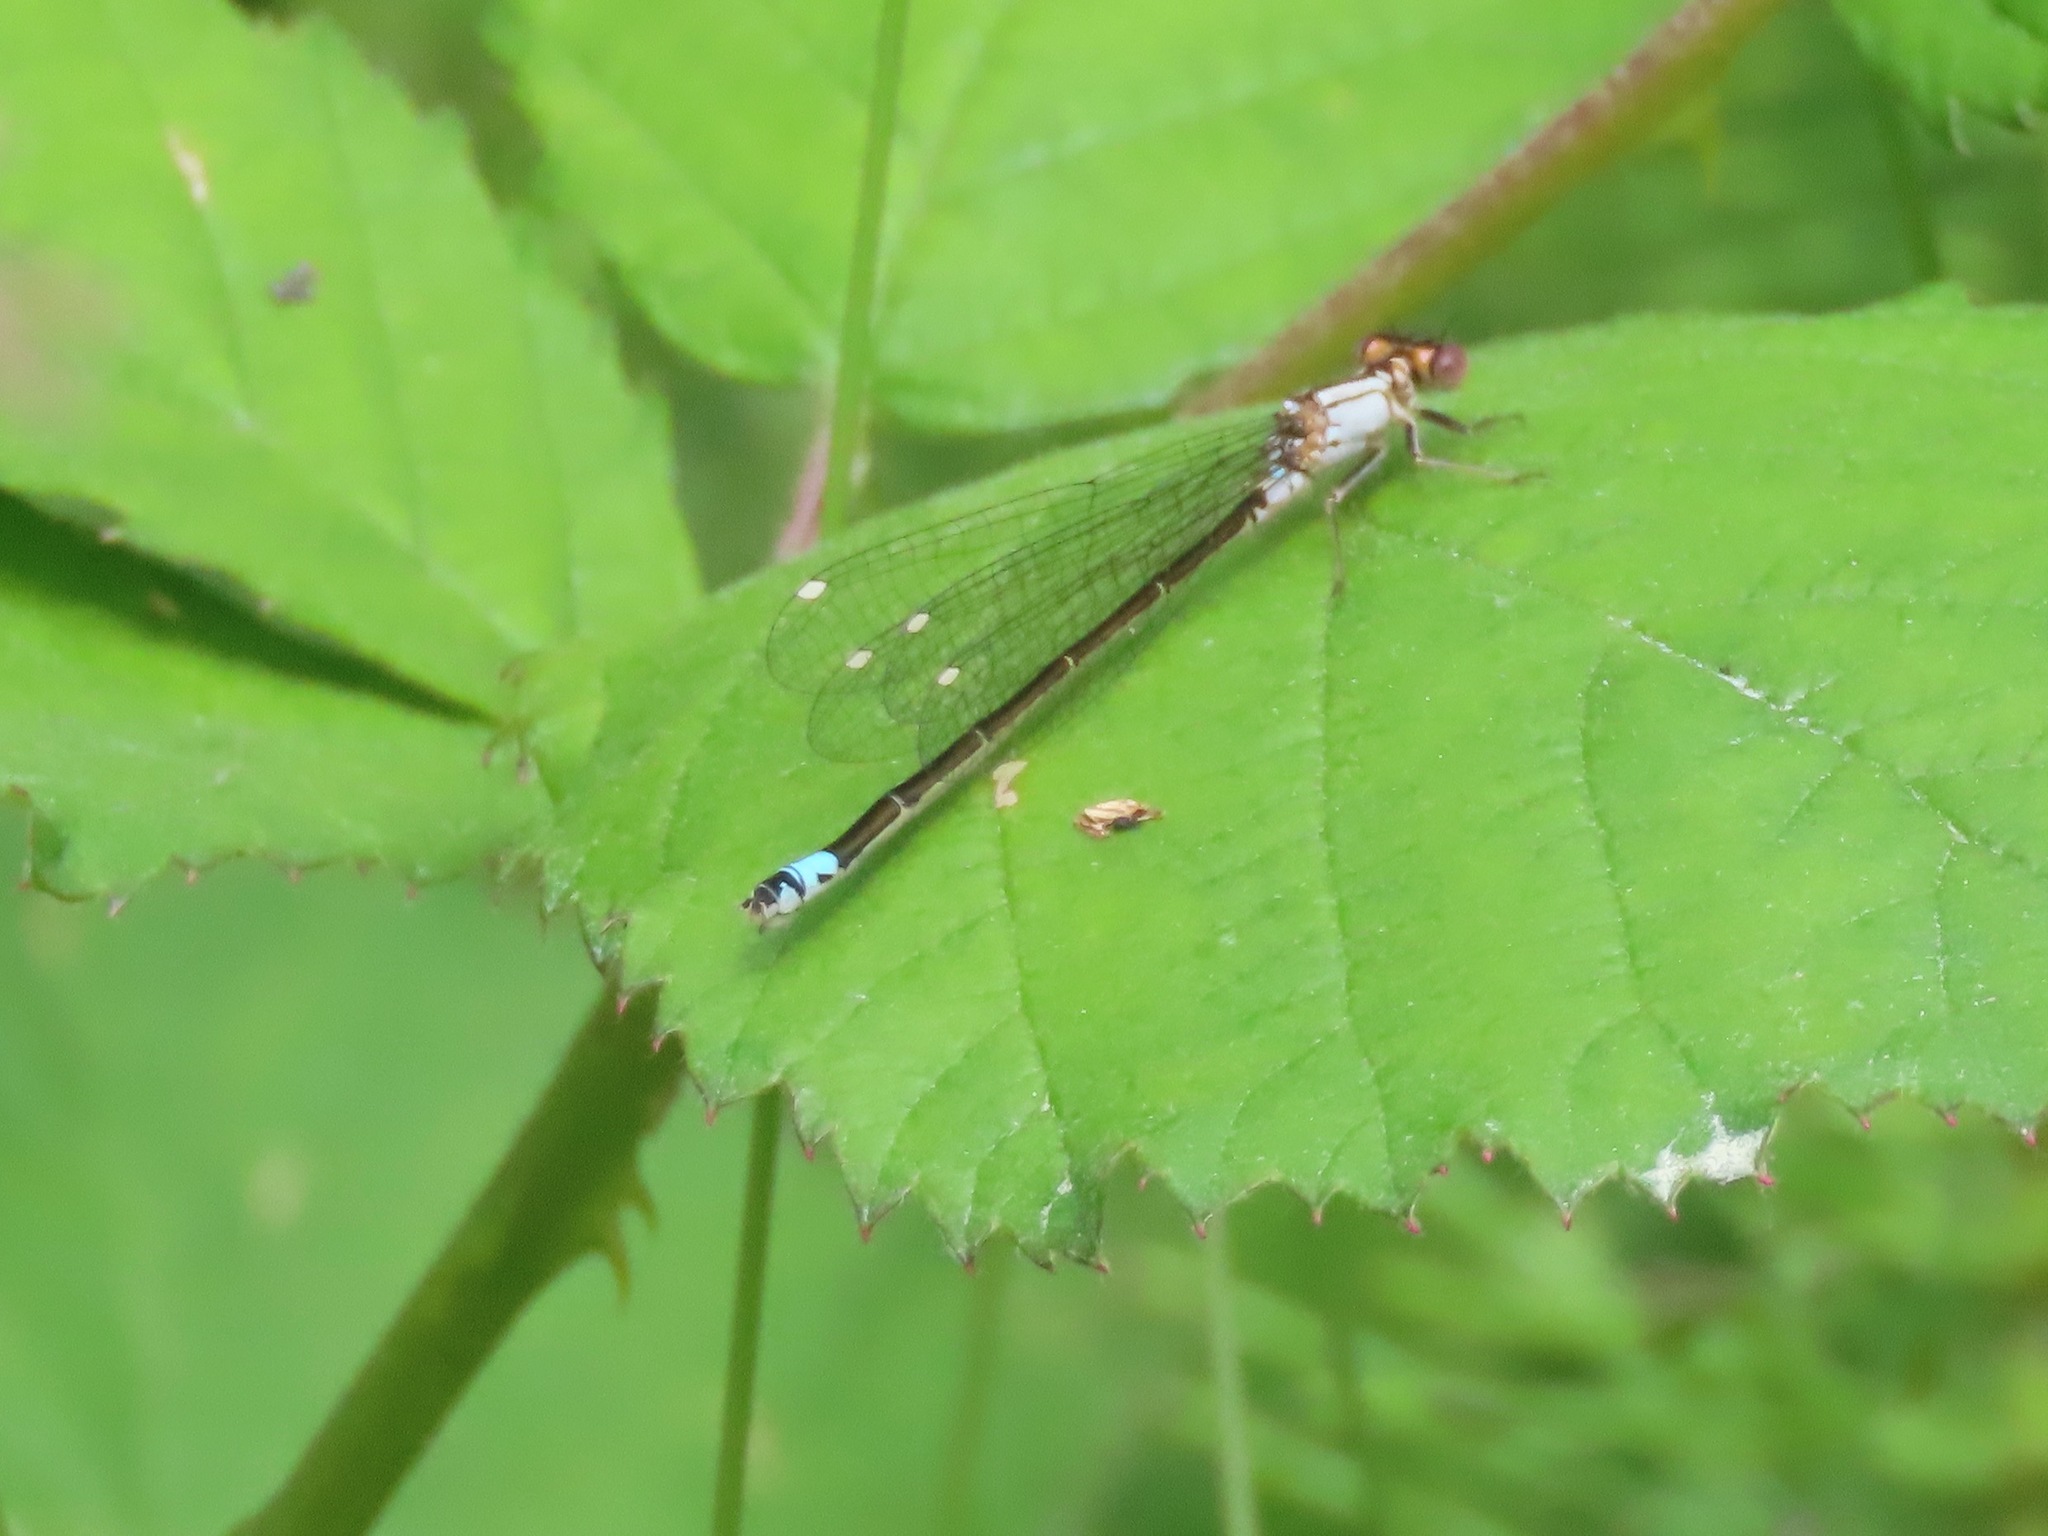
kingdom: Animalia
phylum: Arthropoda
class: Insecta
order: Odonata
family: Coenagrionidae
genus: Ischnura
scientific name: Ischnura cervula
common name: Pacific forktail
